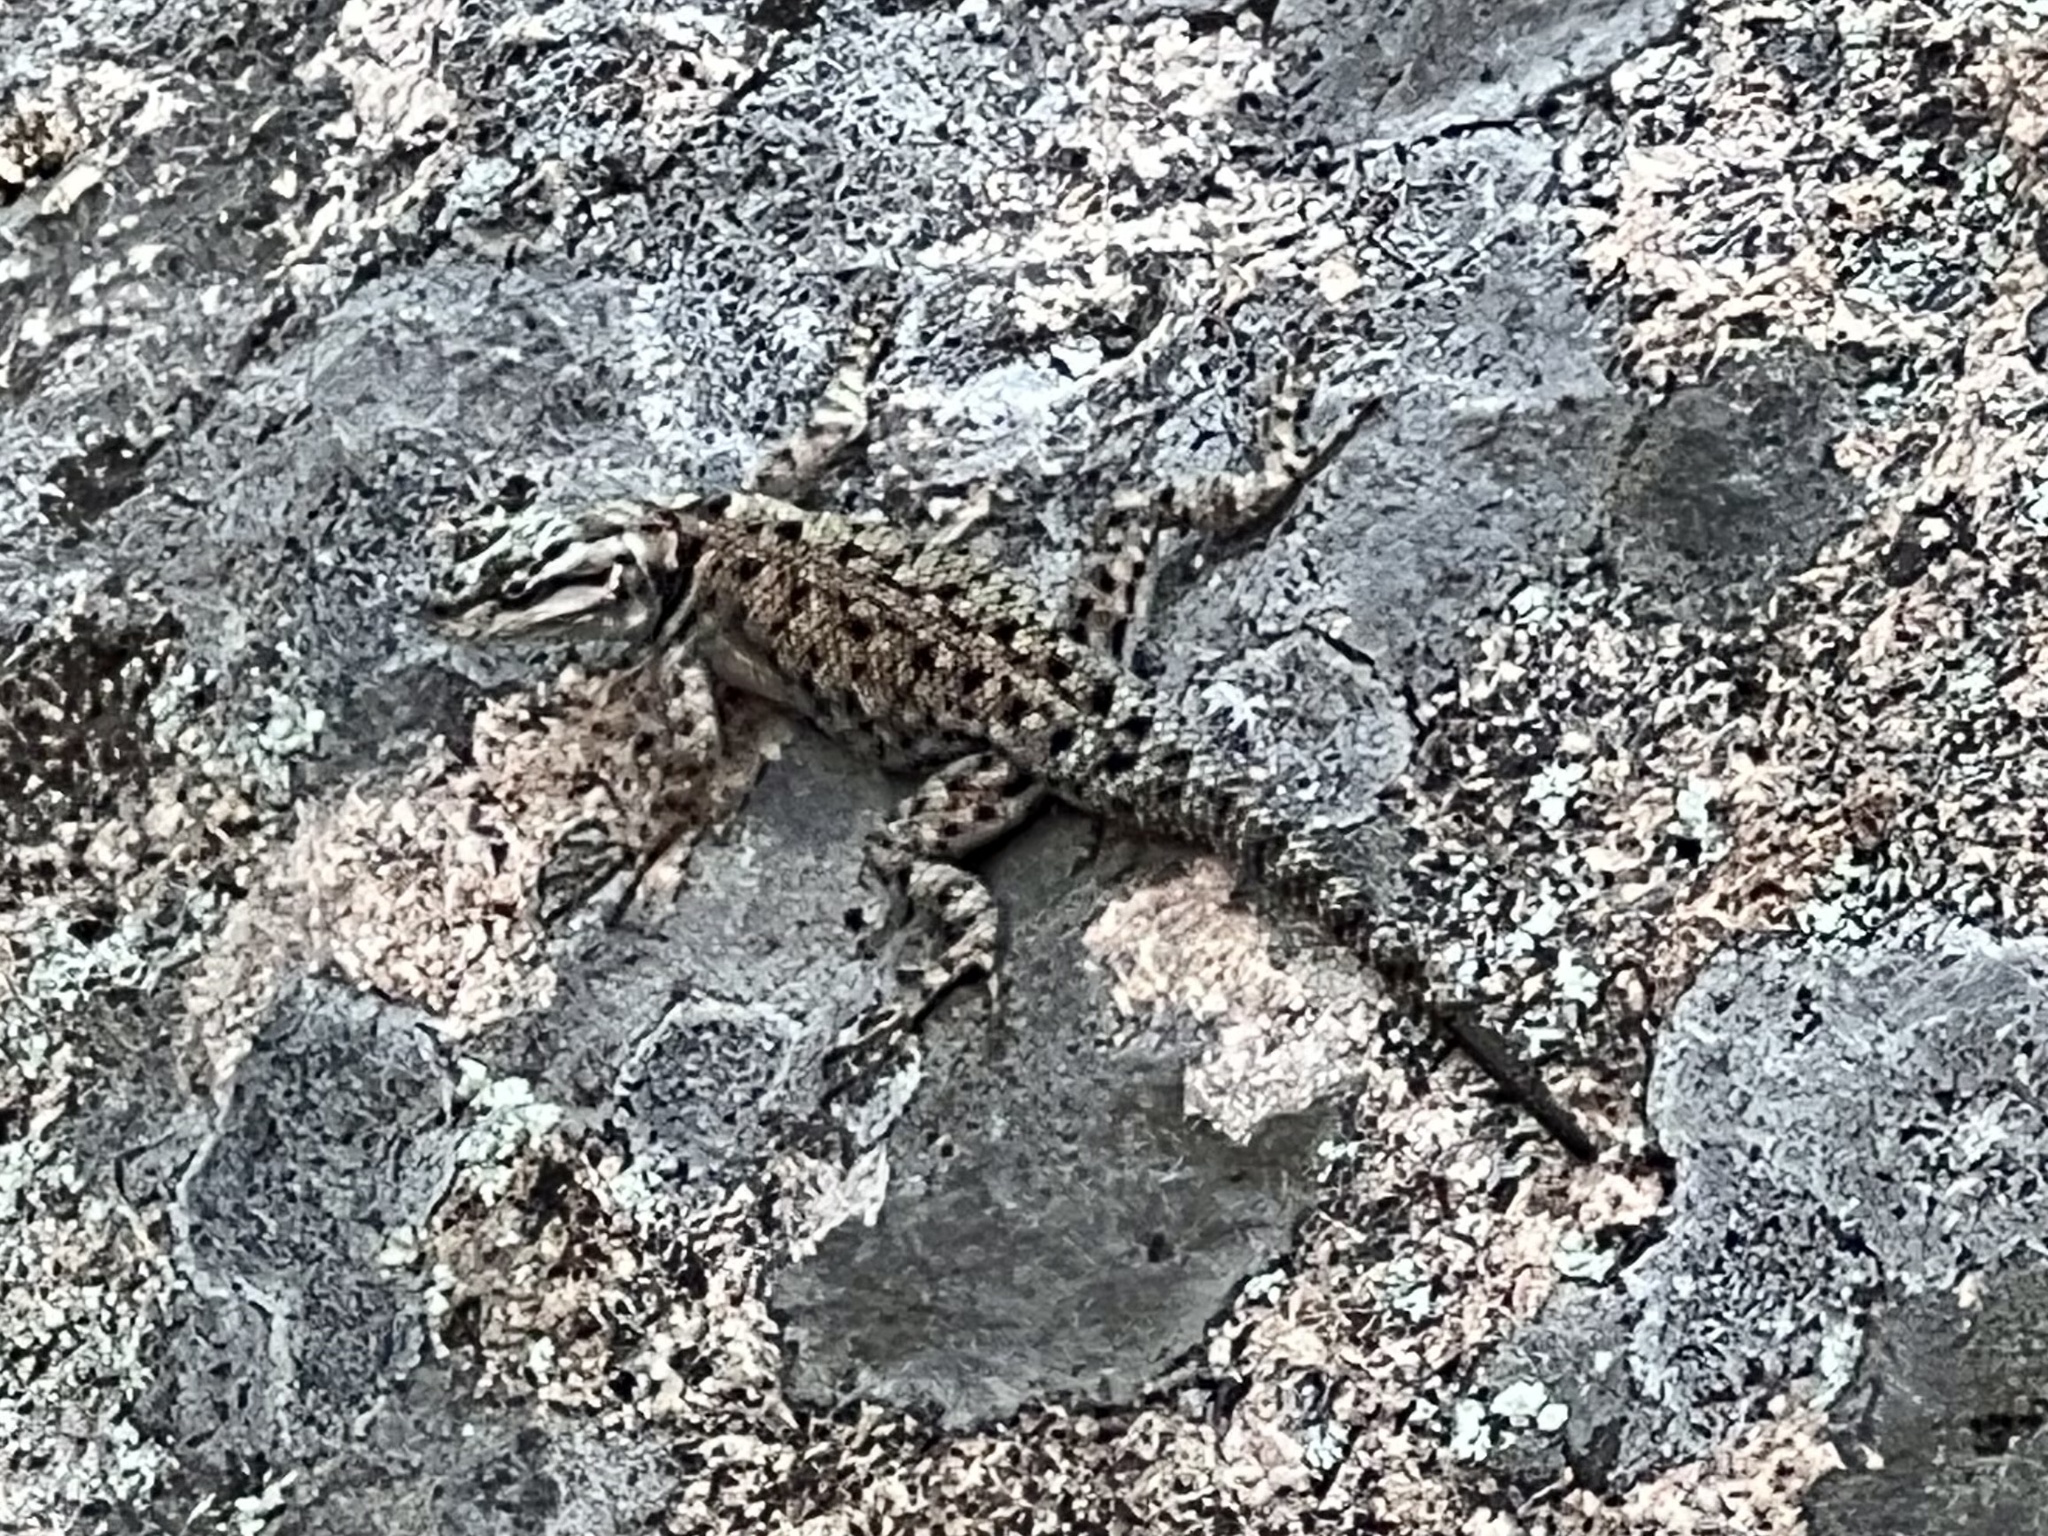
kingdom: Animalia
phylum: Chordata
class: Squamata
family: Phrynosomatidae
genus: Sceloporus
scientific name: Sceloporus jarrovii
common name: Yarrow's spiny lizard
